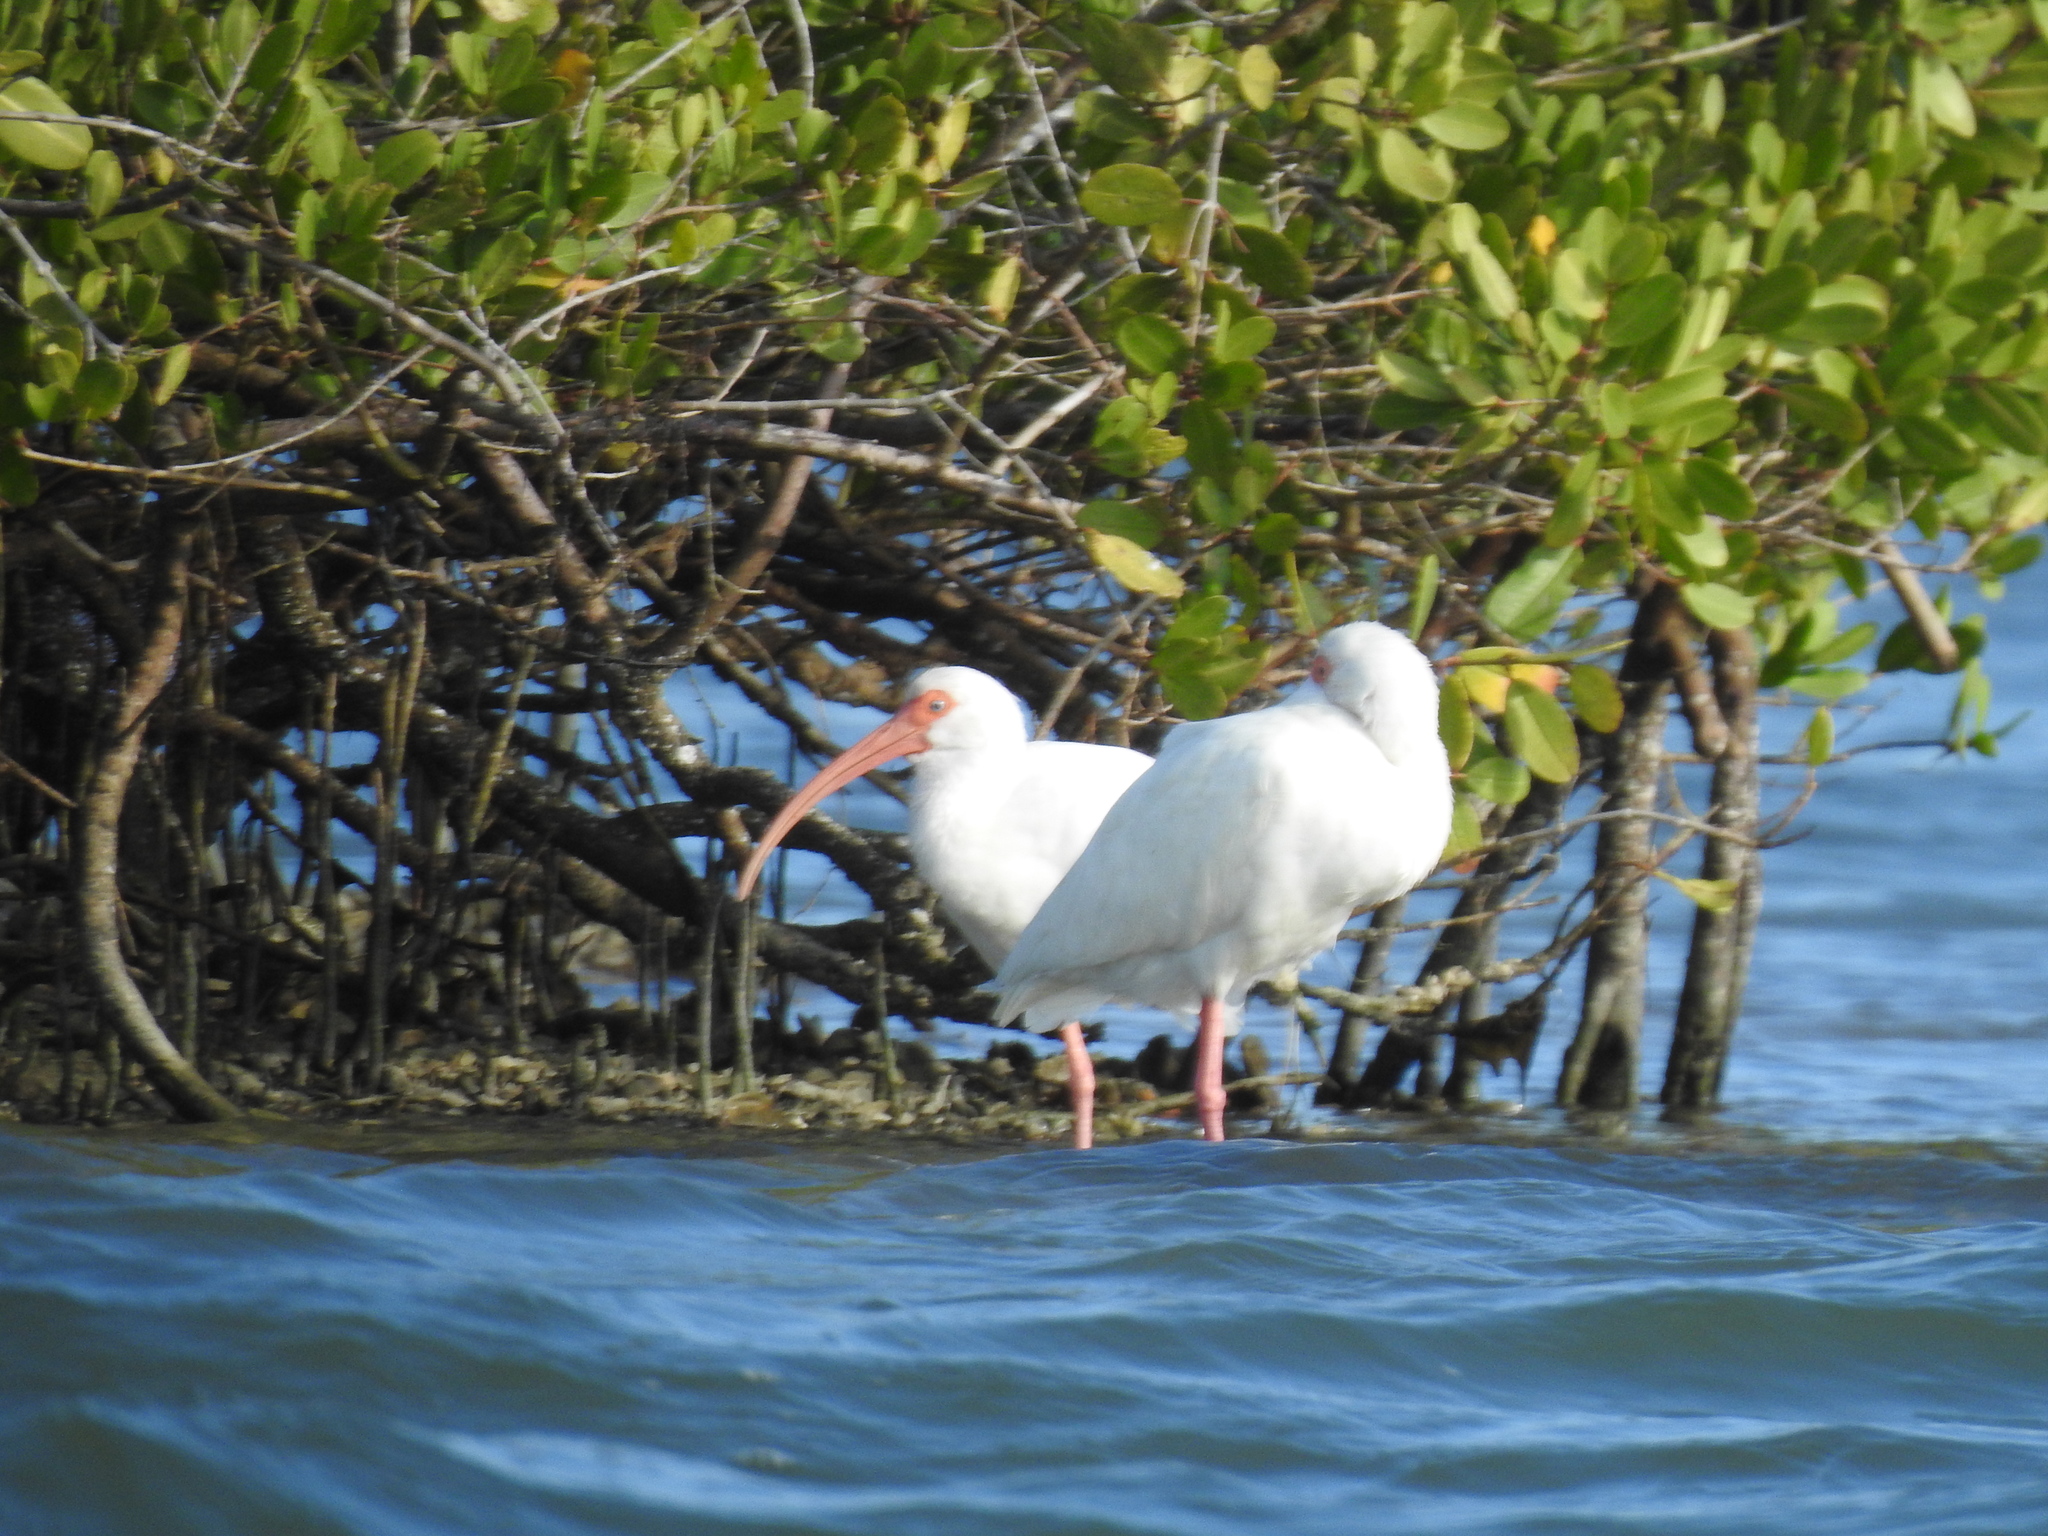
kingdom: Animalia
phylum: Chordata
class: Aves
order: Pelecaniformes
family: Threskiornithidae
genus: Eudocimus
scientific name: Eudocimus albus
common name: White ibis
